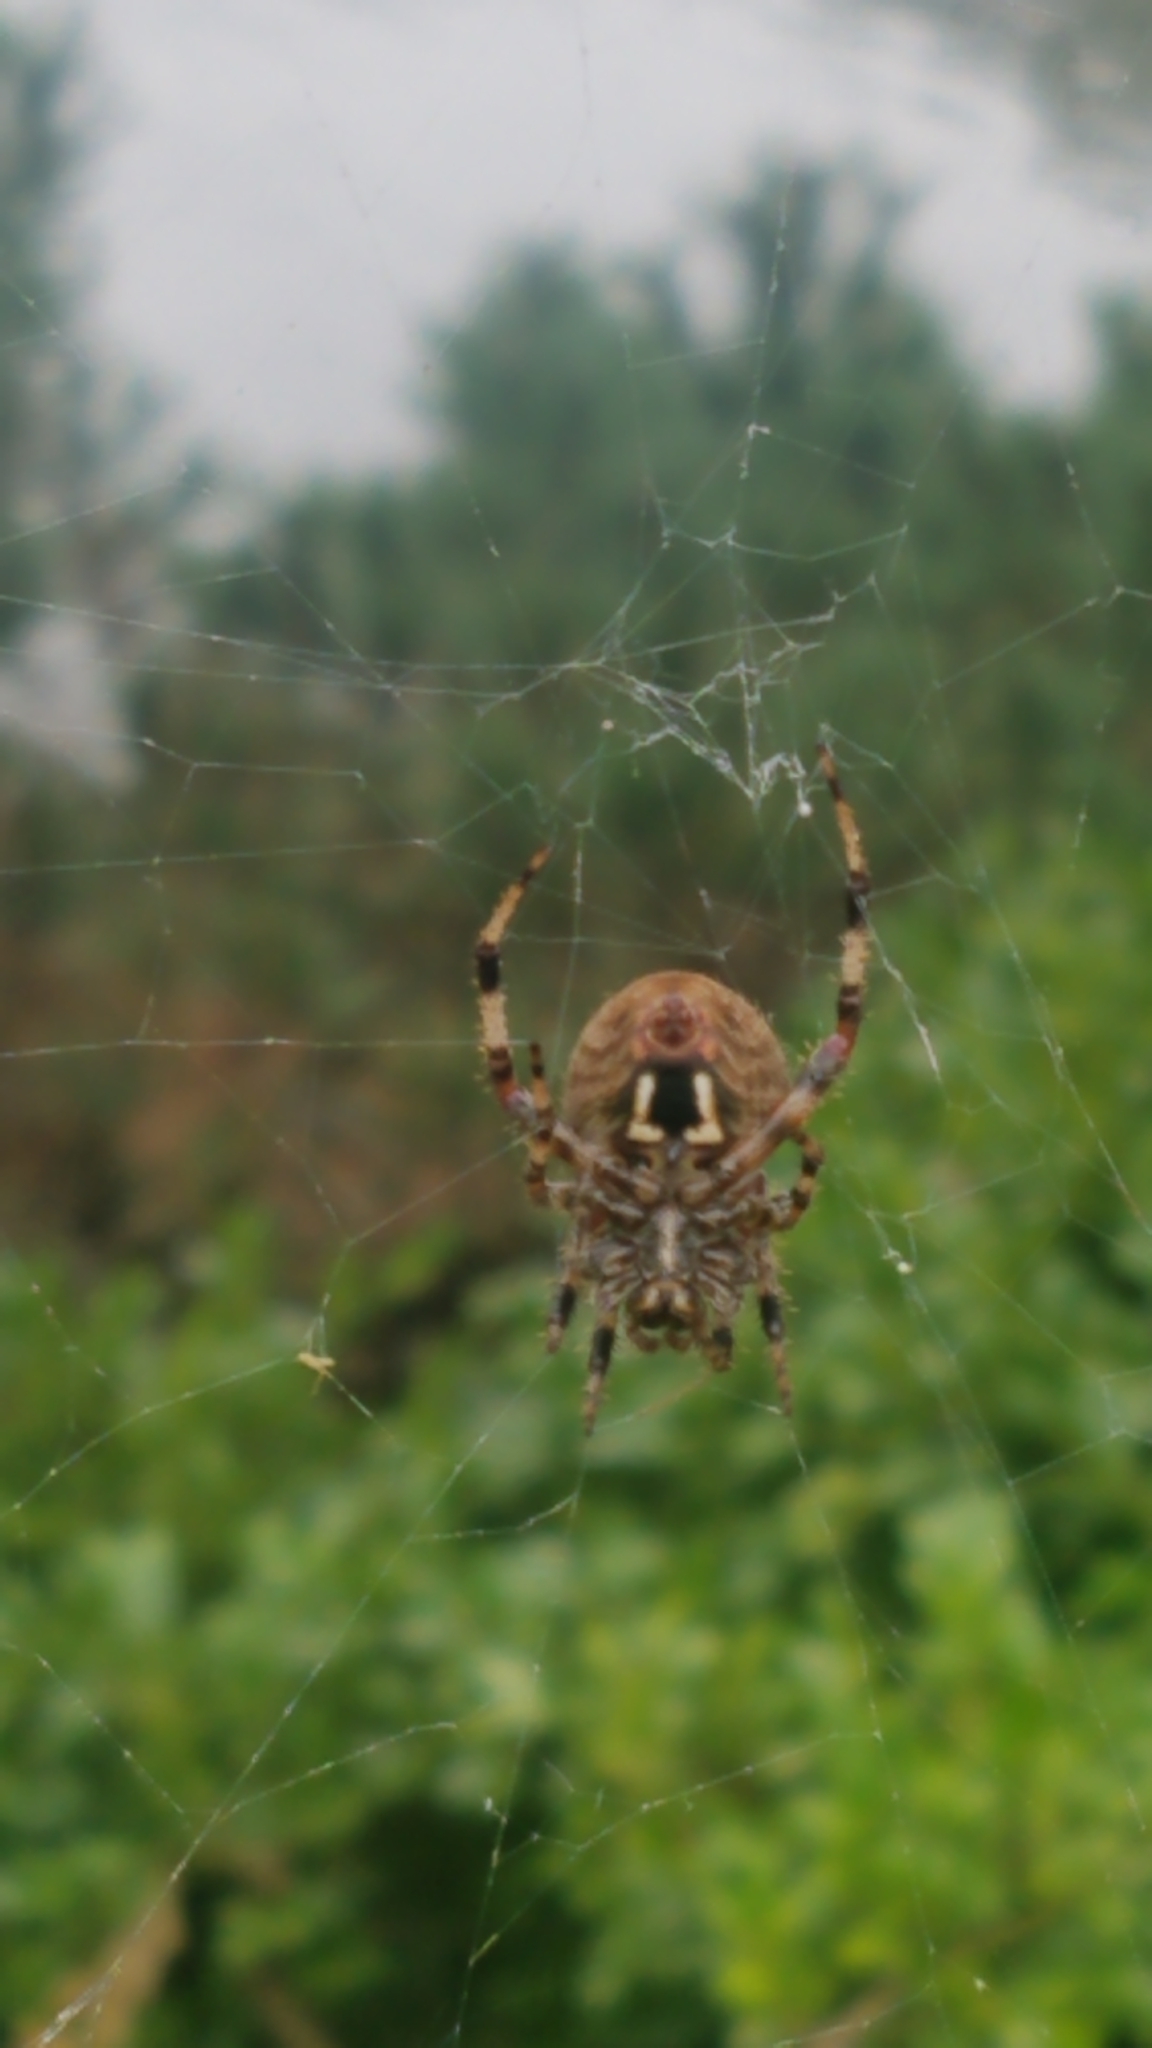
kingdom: Animalia
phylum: Arthropoda
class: Arachnida
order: Araneae
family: Araneidae
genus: Neoscona
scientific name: Neoscona crucifera
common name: Spotted orbweaver
